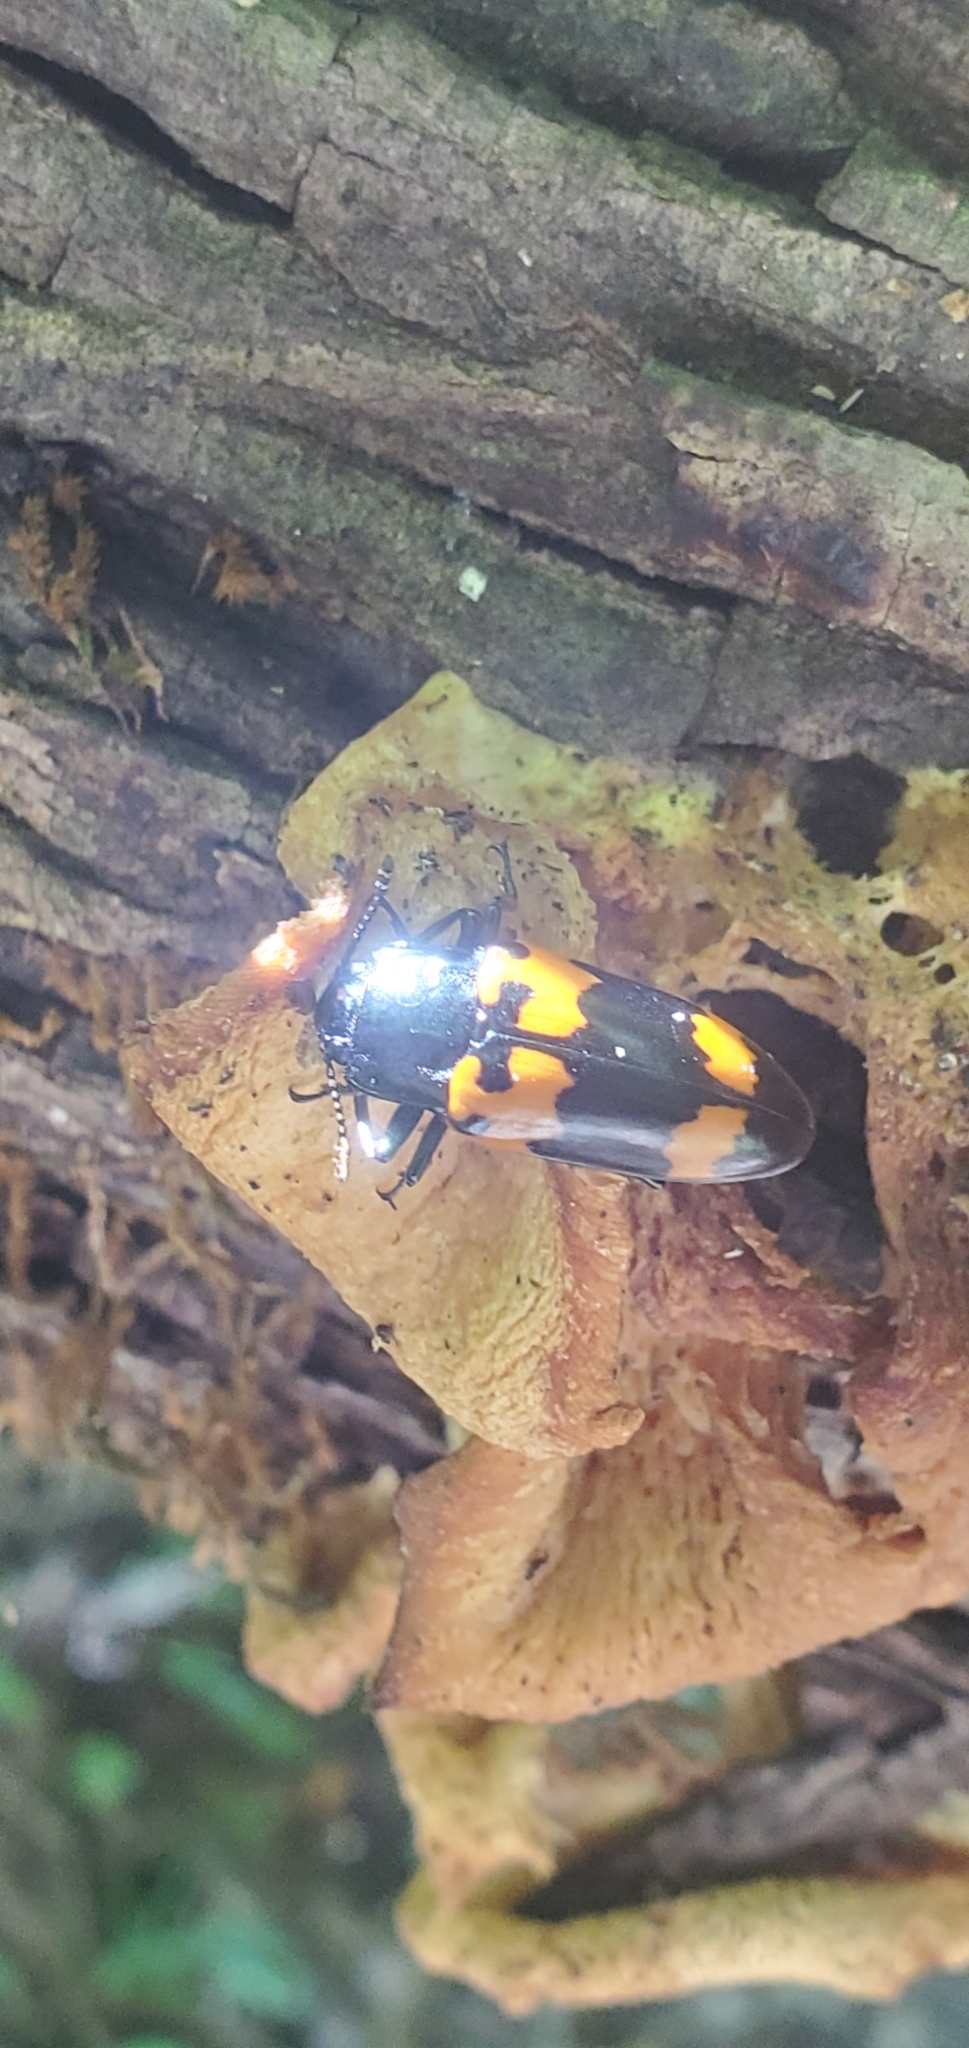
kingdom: Animalia
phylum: Arthropoda
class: Insecta
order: Coleoptera
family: Erotylidae
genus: Megalodacne
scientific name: Megalodacne heros
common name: Pleasing fungus beetle
